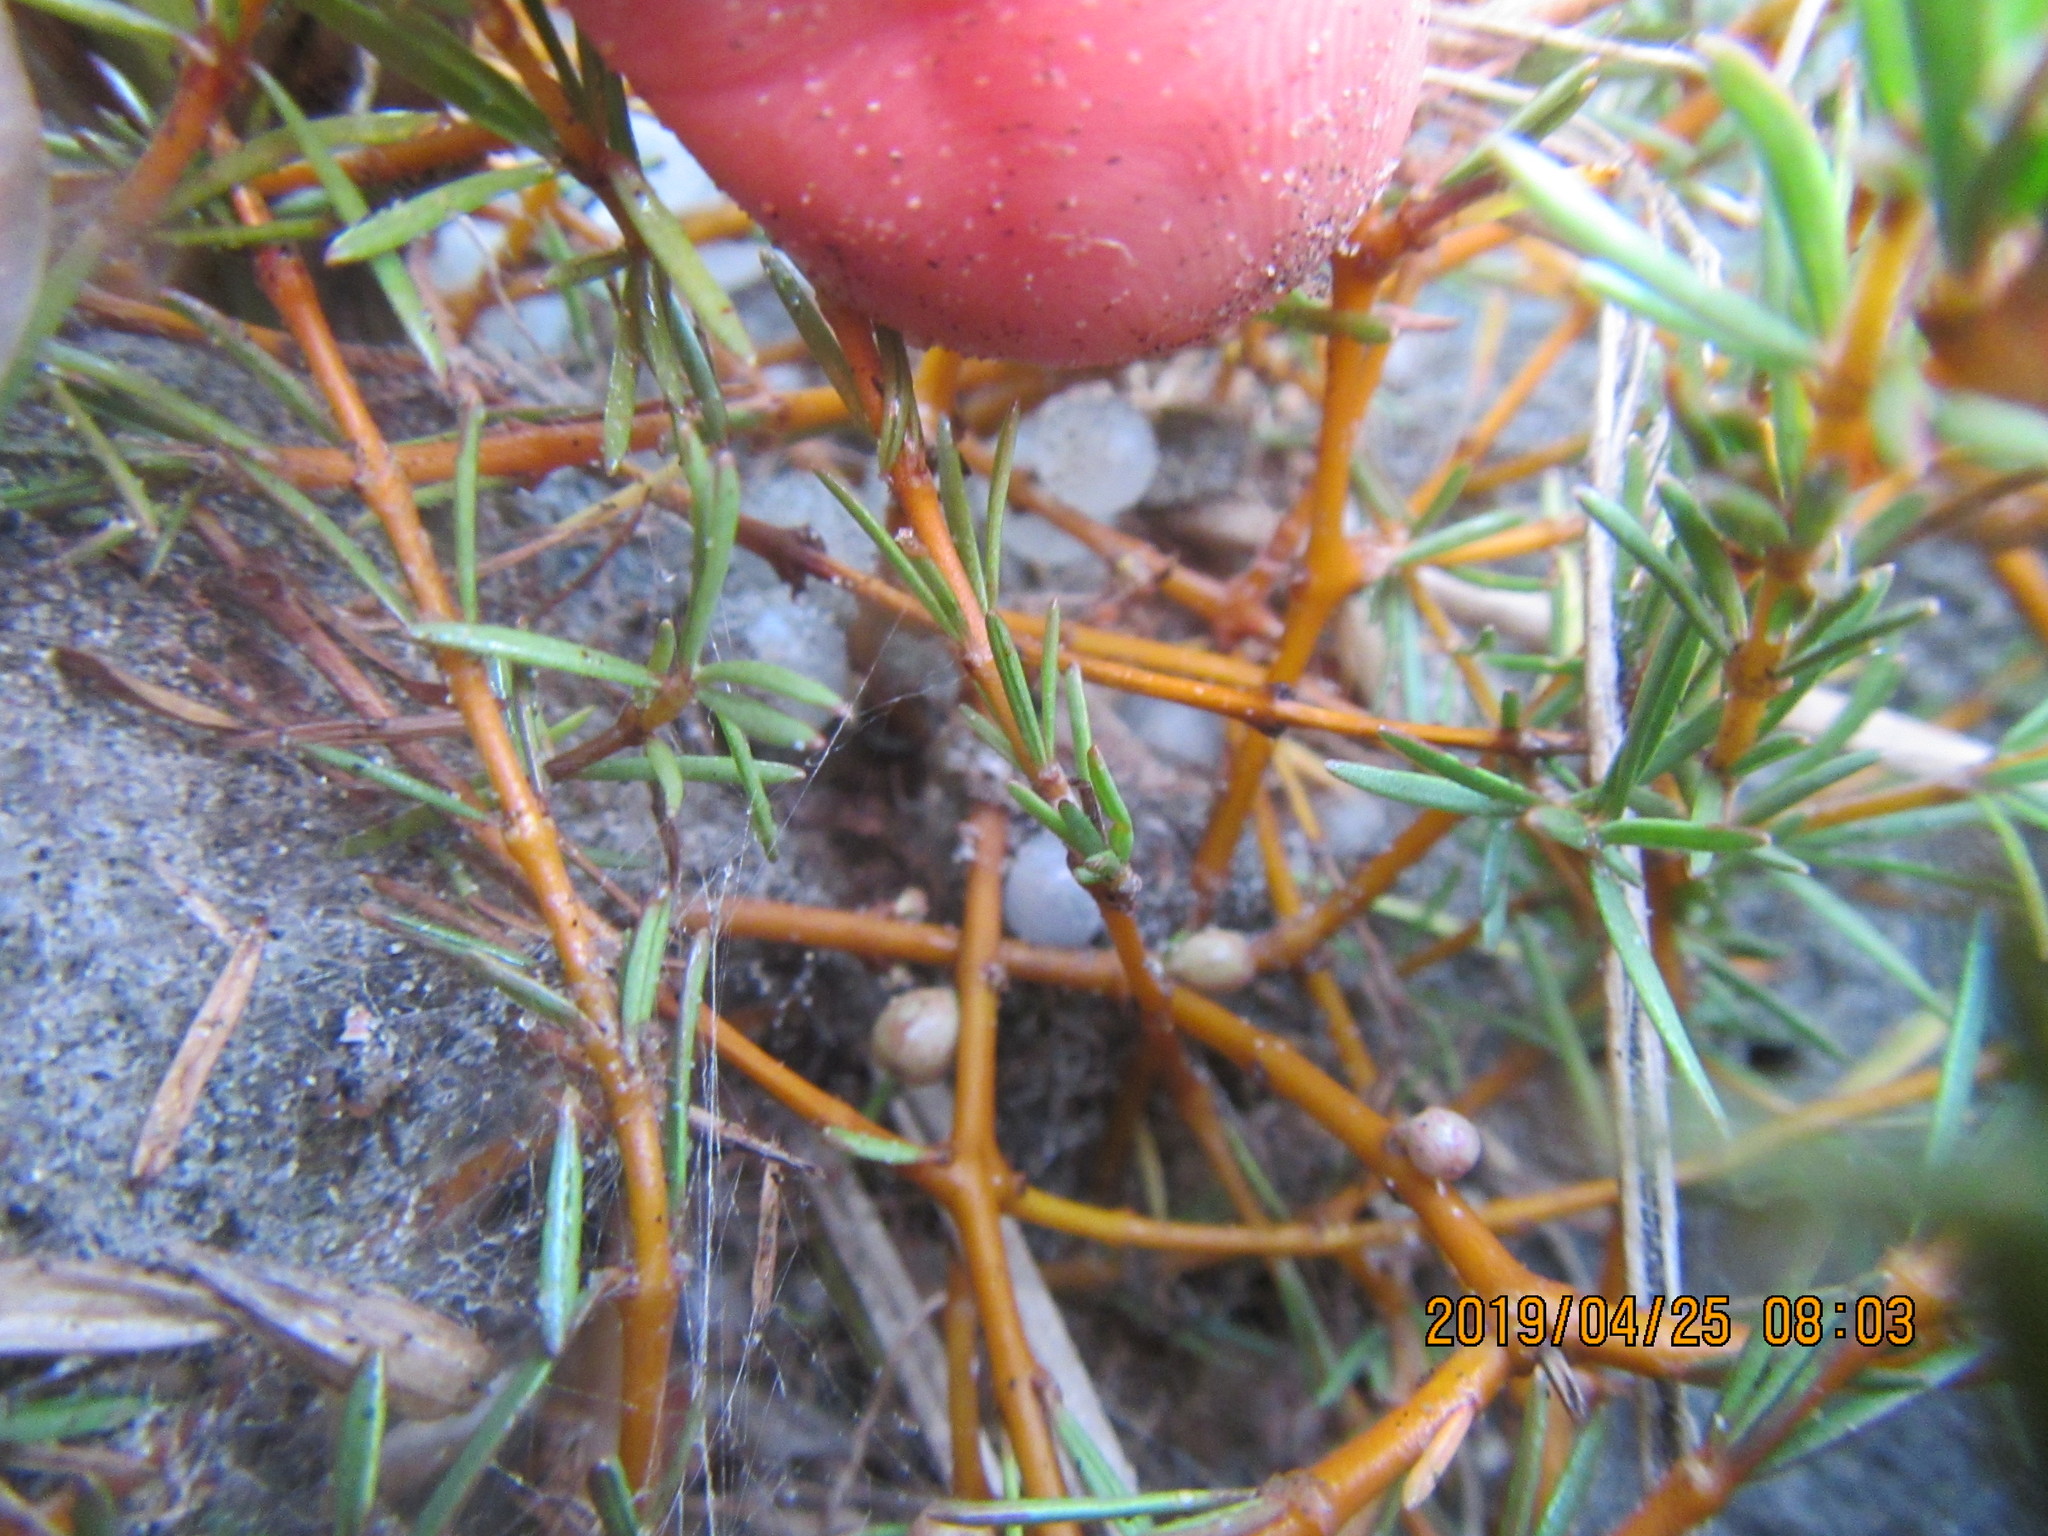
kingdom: Plantae
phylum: Tracheophyta
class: Magnoliopsida
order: Gentianales
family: Rubiaceae
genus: Coprosma
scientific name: Coprosma acerosa
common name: Sand coprosma
